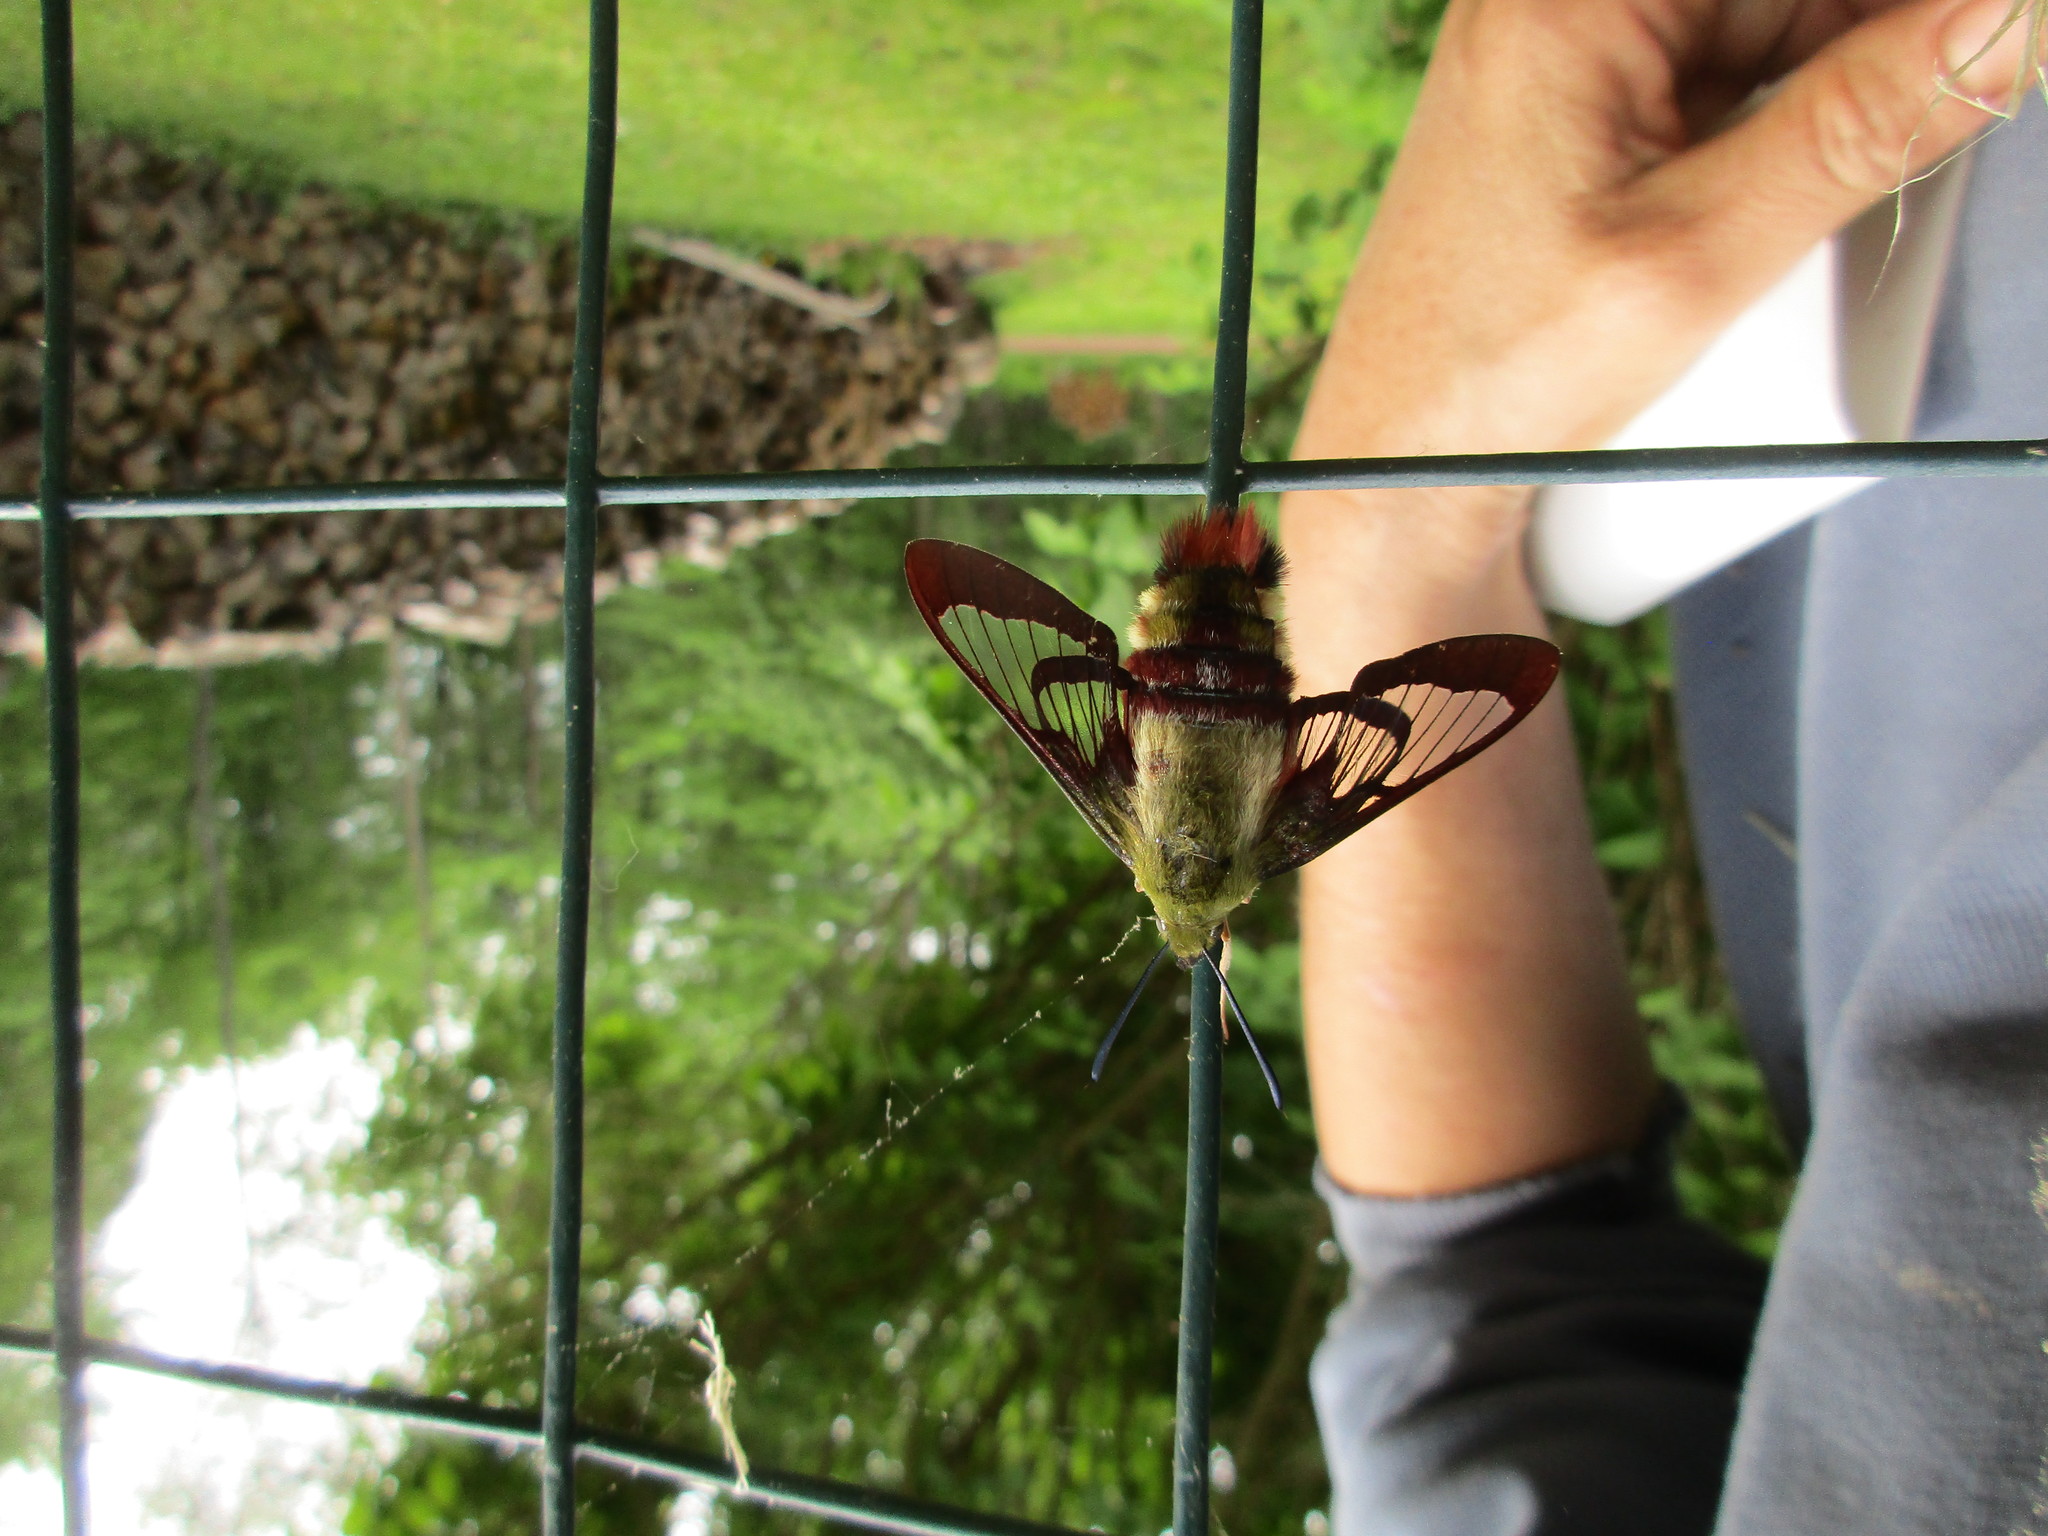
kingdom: Animalia
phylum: Arthropoda
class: Insecta
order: Lepidoptera
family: Sphingidae
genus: Hemaris
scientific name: Hemaris thysbe
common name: Common clear-wing
